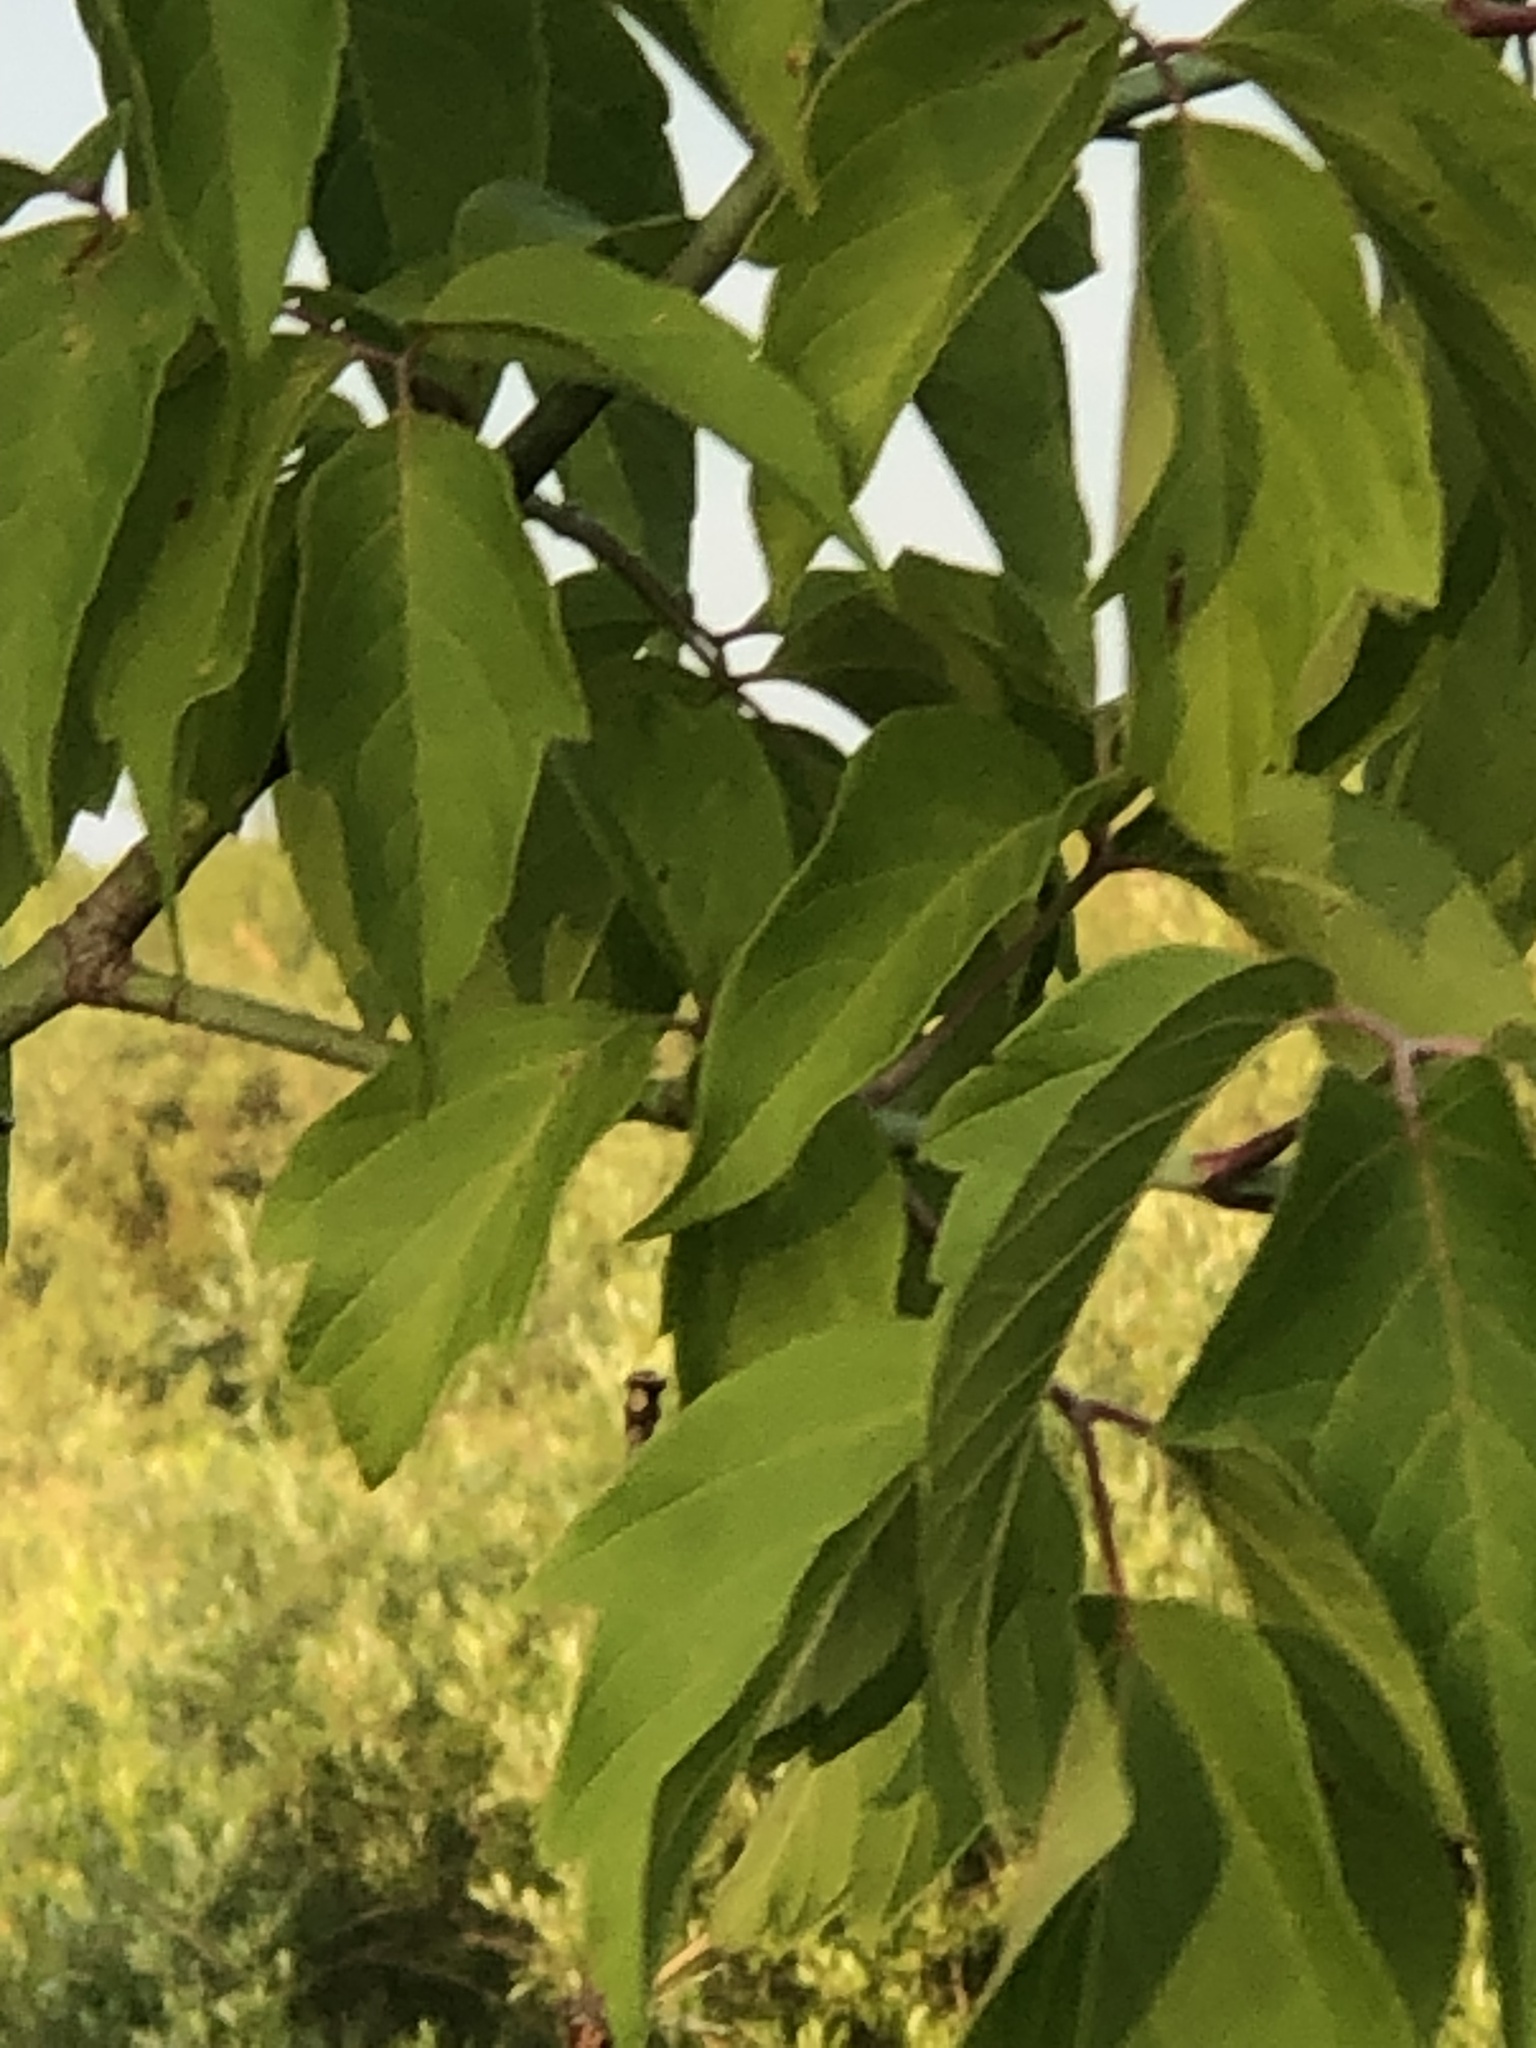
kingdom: Plantae
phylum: Tracheophyta
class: Magnoliopsida
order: Sapindales
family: Sapindaceae
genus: Acer
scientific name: Acer negundo
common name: Ashleaf maple
